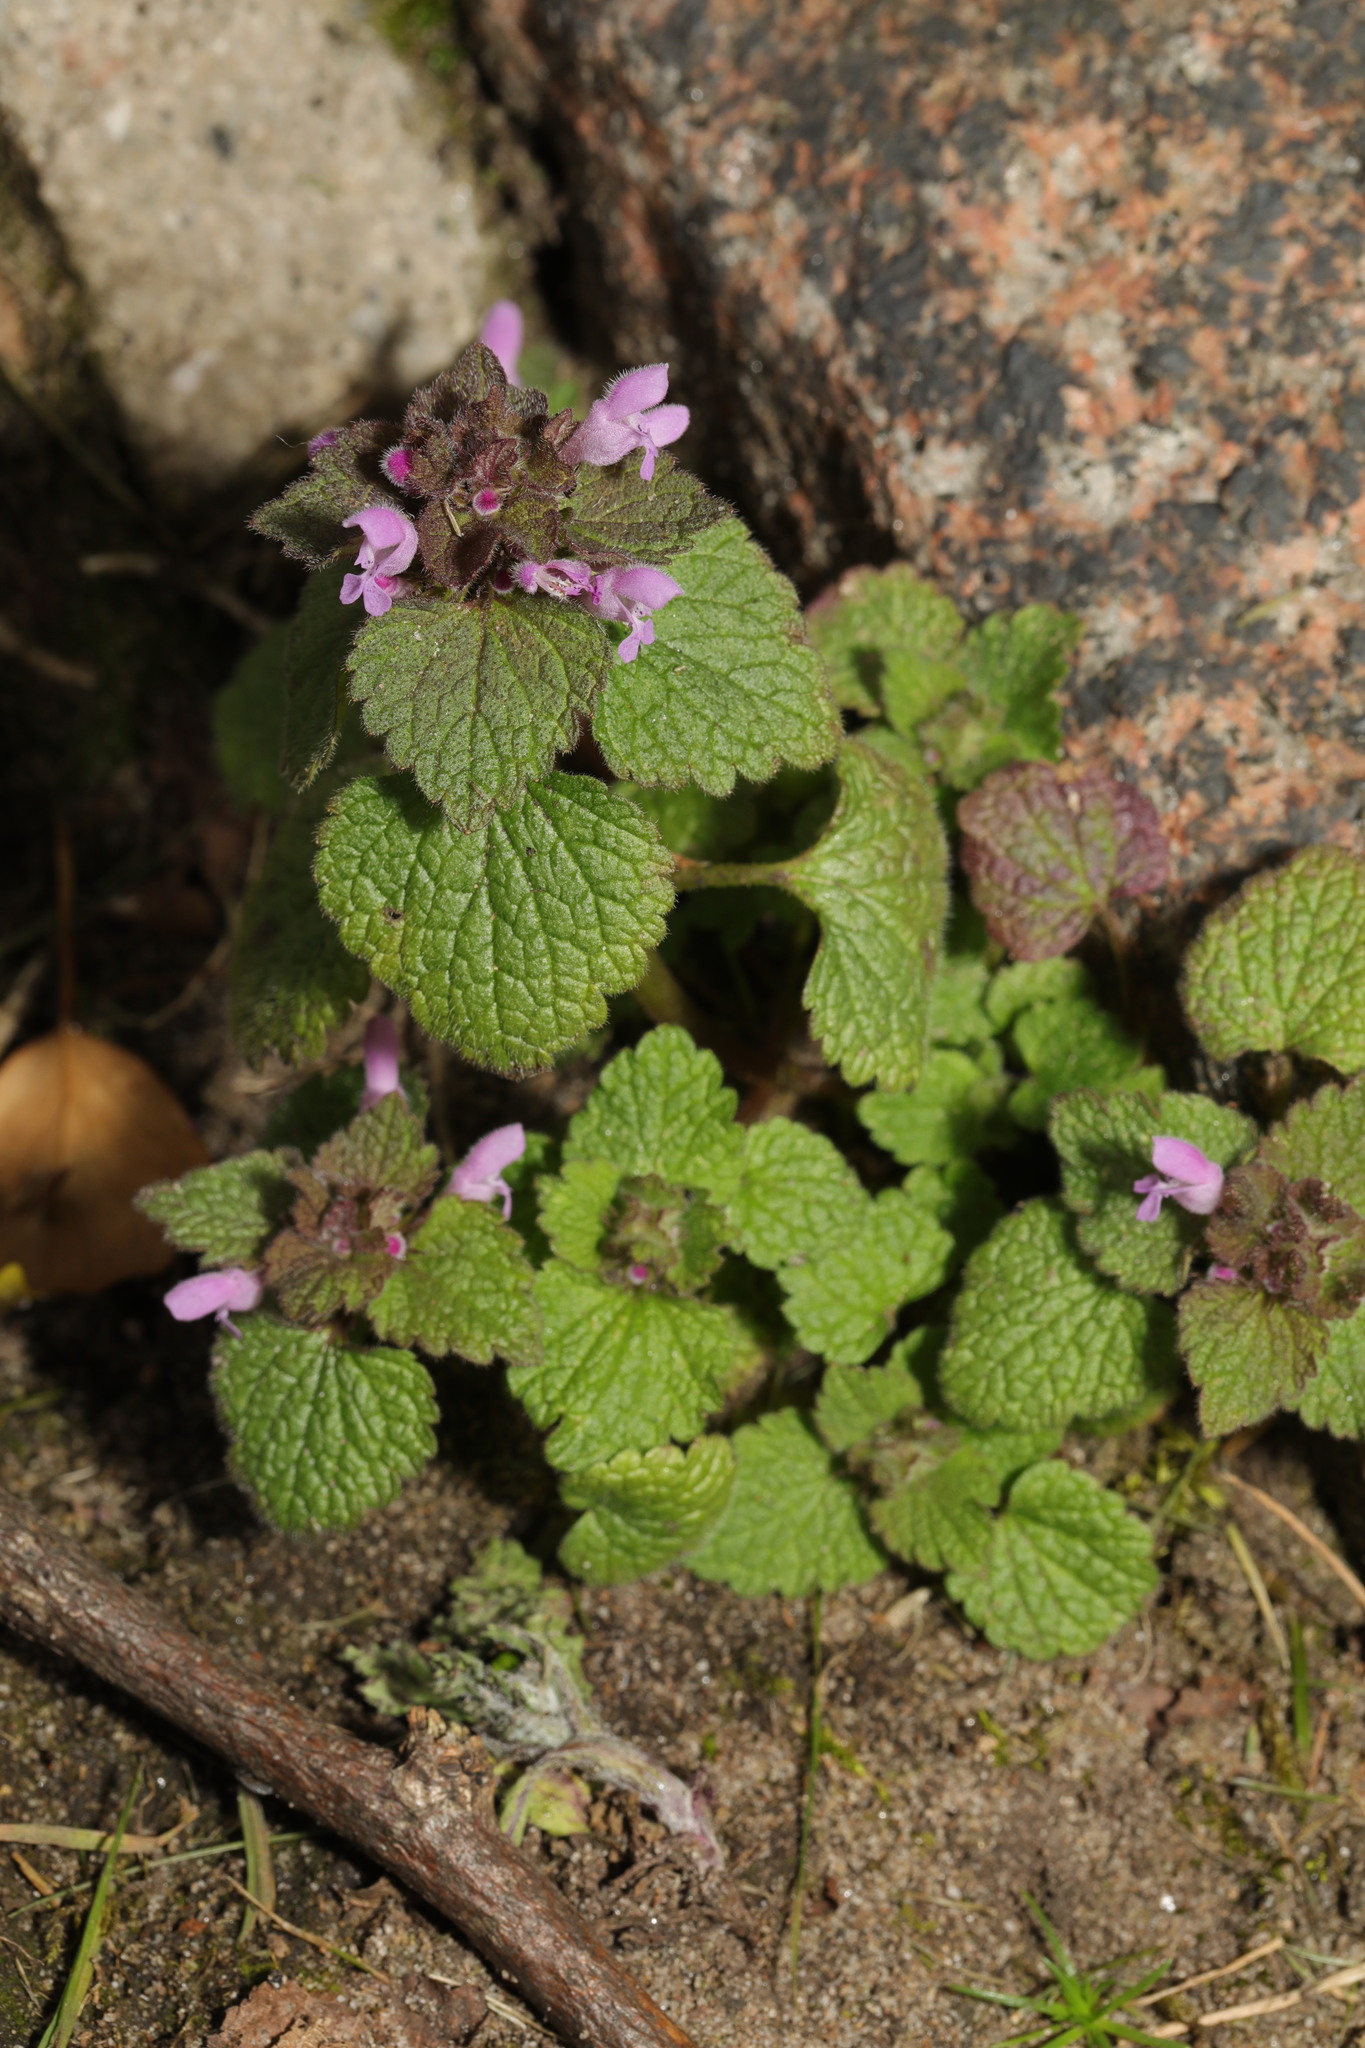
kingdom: Plantae
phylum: Tracheophyta
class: Magnoliopsida
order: Lamiales
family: Lamiaceae
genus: Lamium
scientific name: Lamium purpureum
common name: Red dead-nettle
